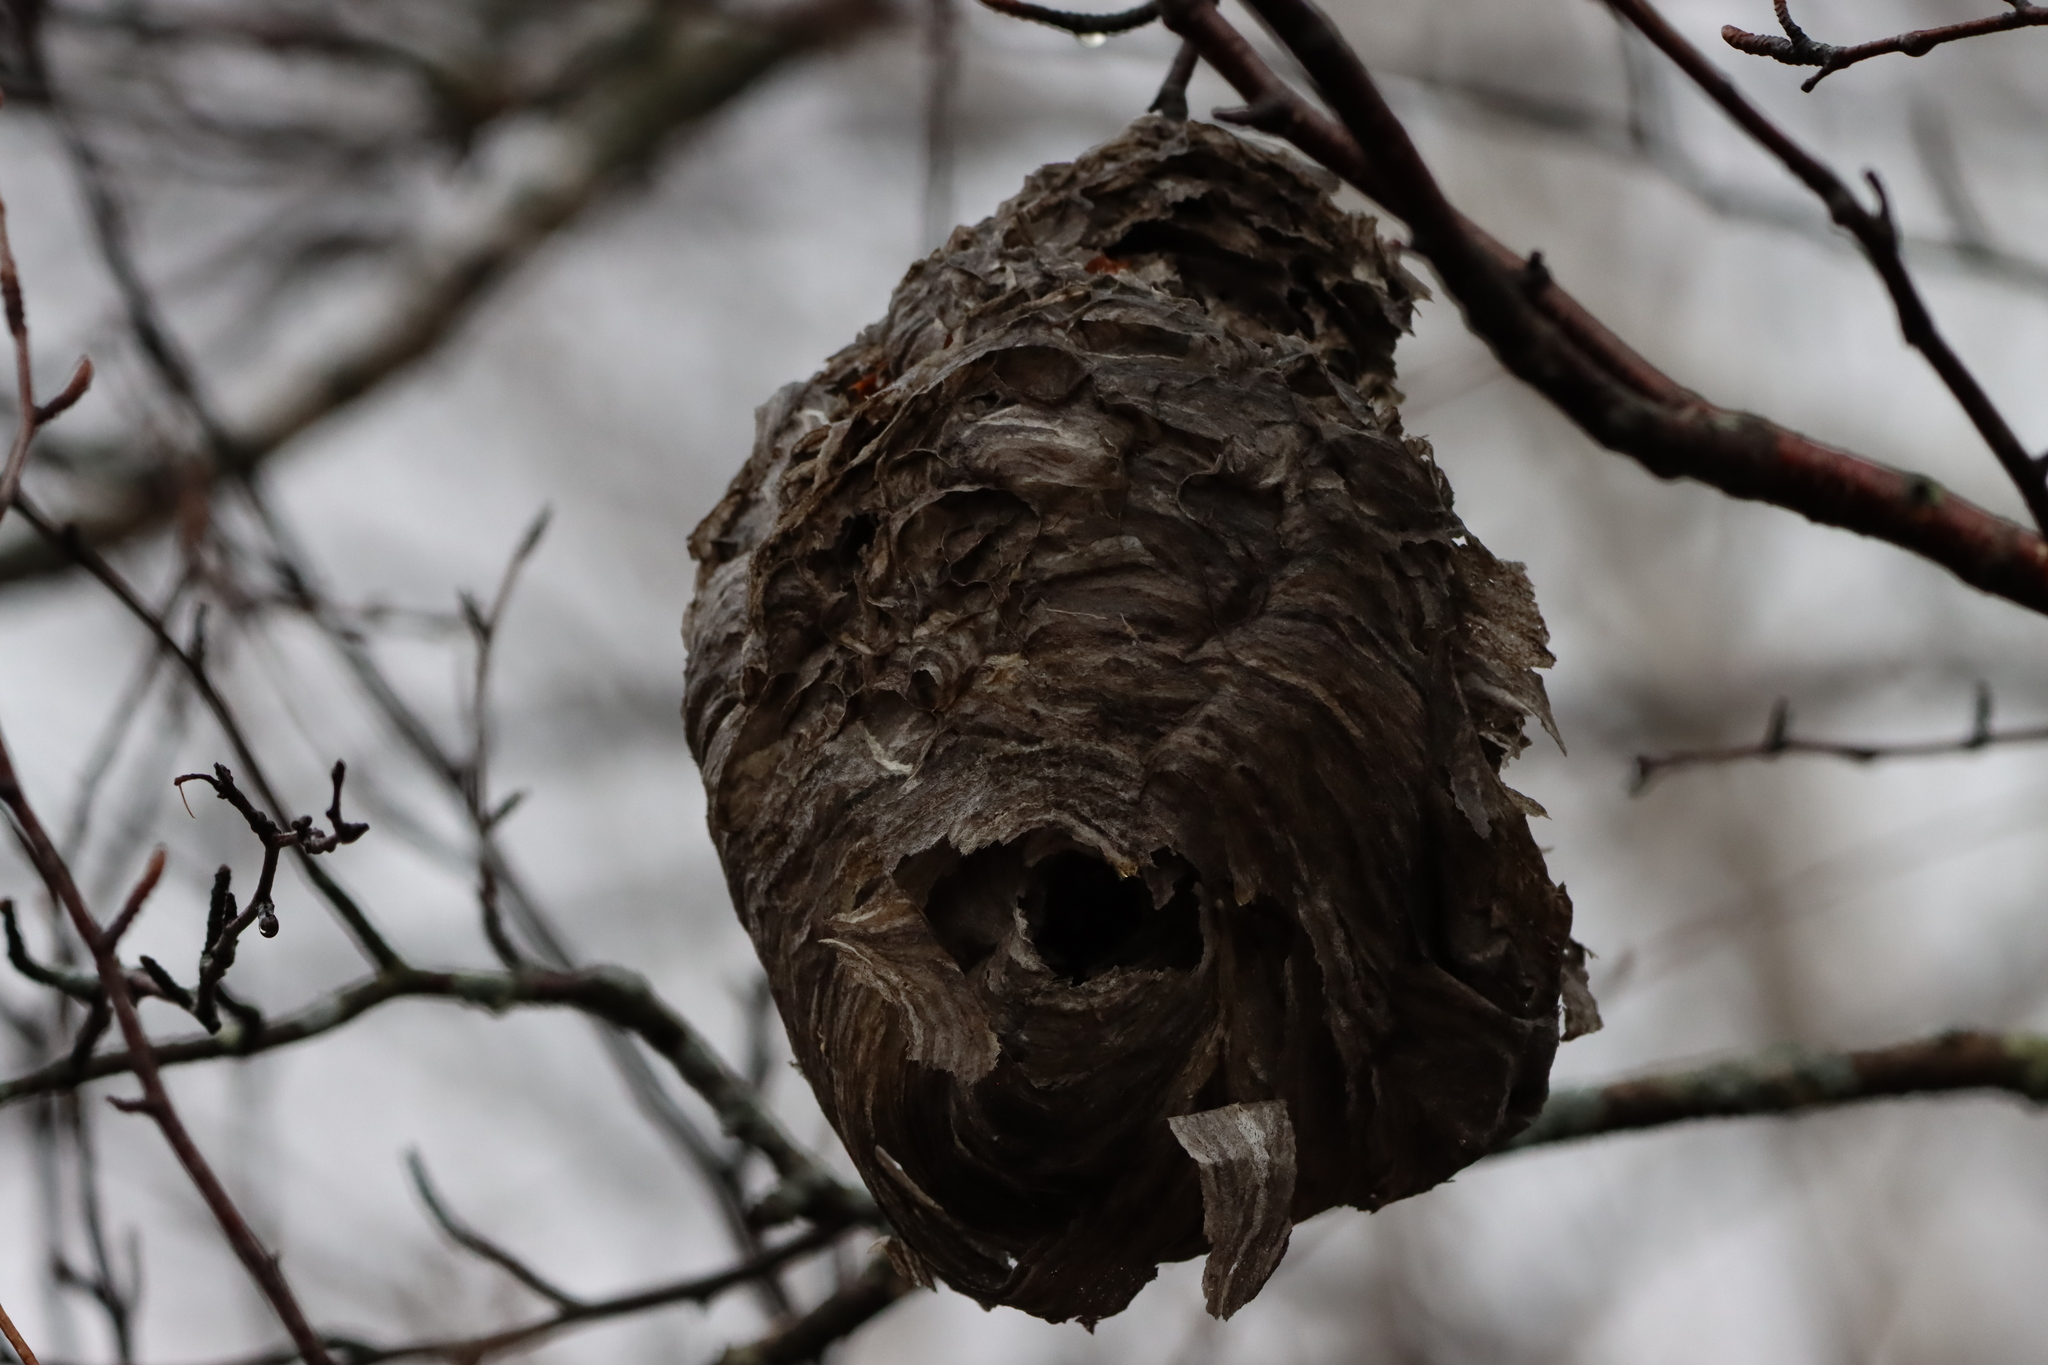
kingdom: Animalia
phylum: Arthropoda
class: Insecta
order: Hymenoptera
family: Vespidae
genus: Dolichovespula
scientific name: Dolichovespula
